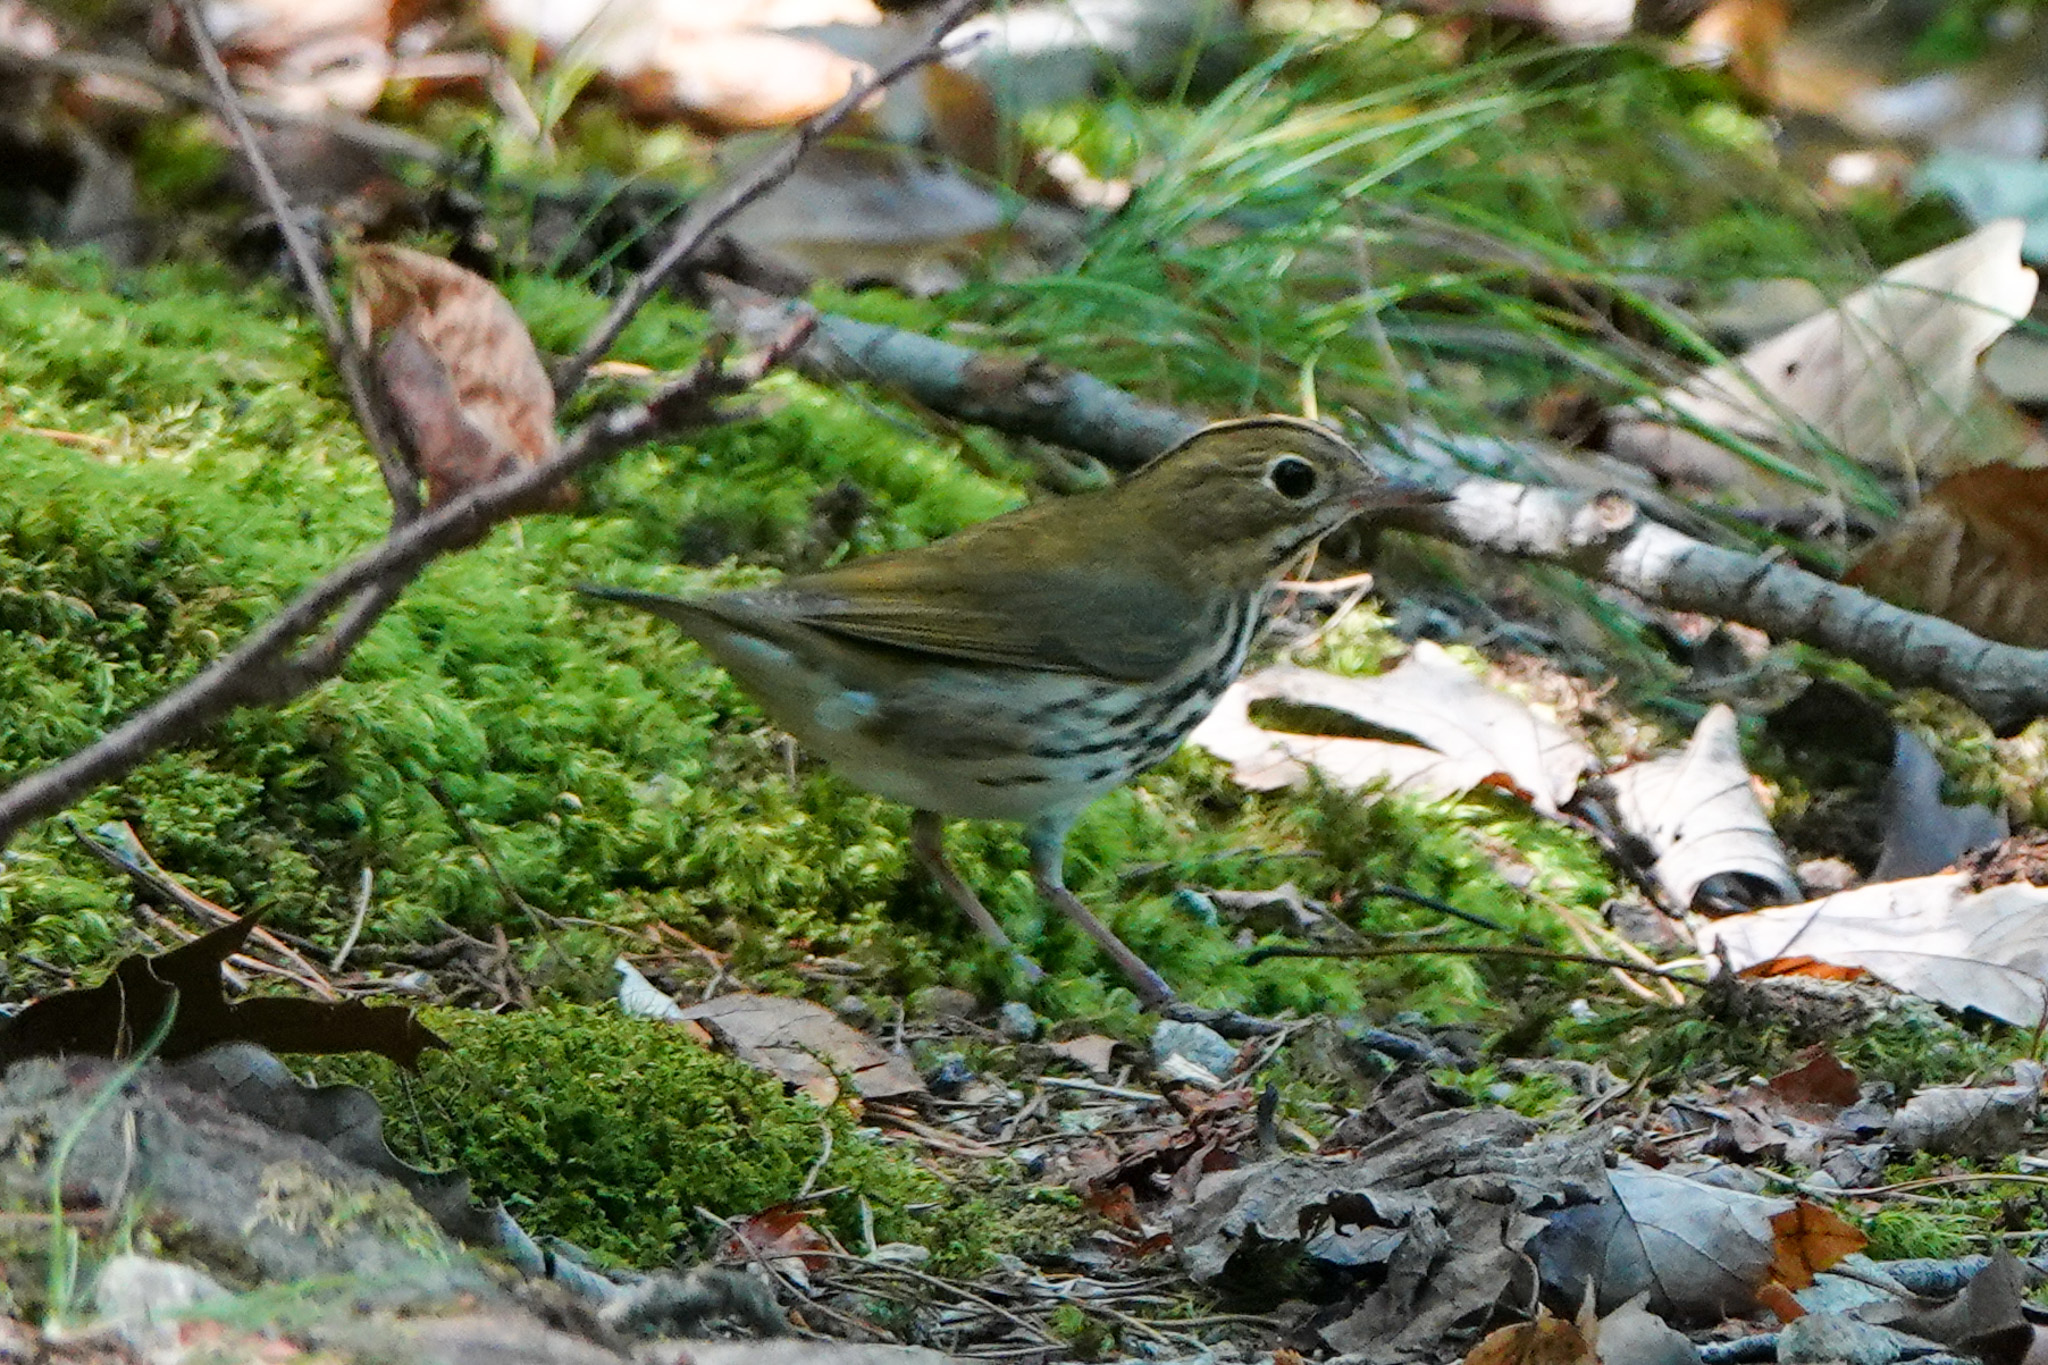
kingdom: Animalia
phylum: Chordata
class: Aves
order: Passeriformes
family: Parulidae
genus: Seiurus
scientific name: Seiurus aurocapilla
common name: Ovenbird
